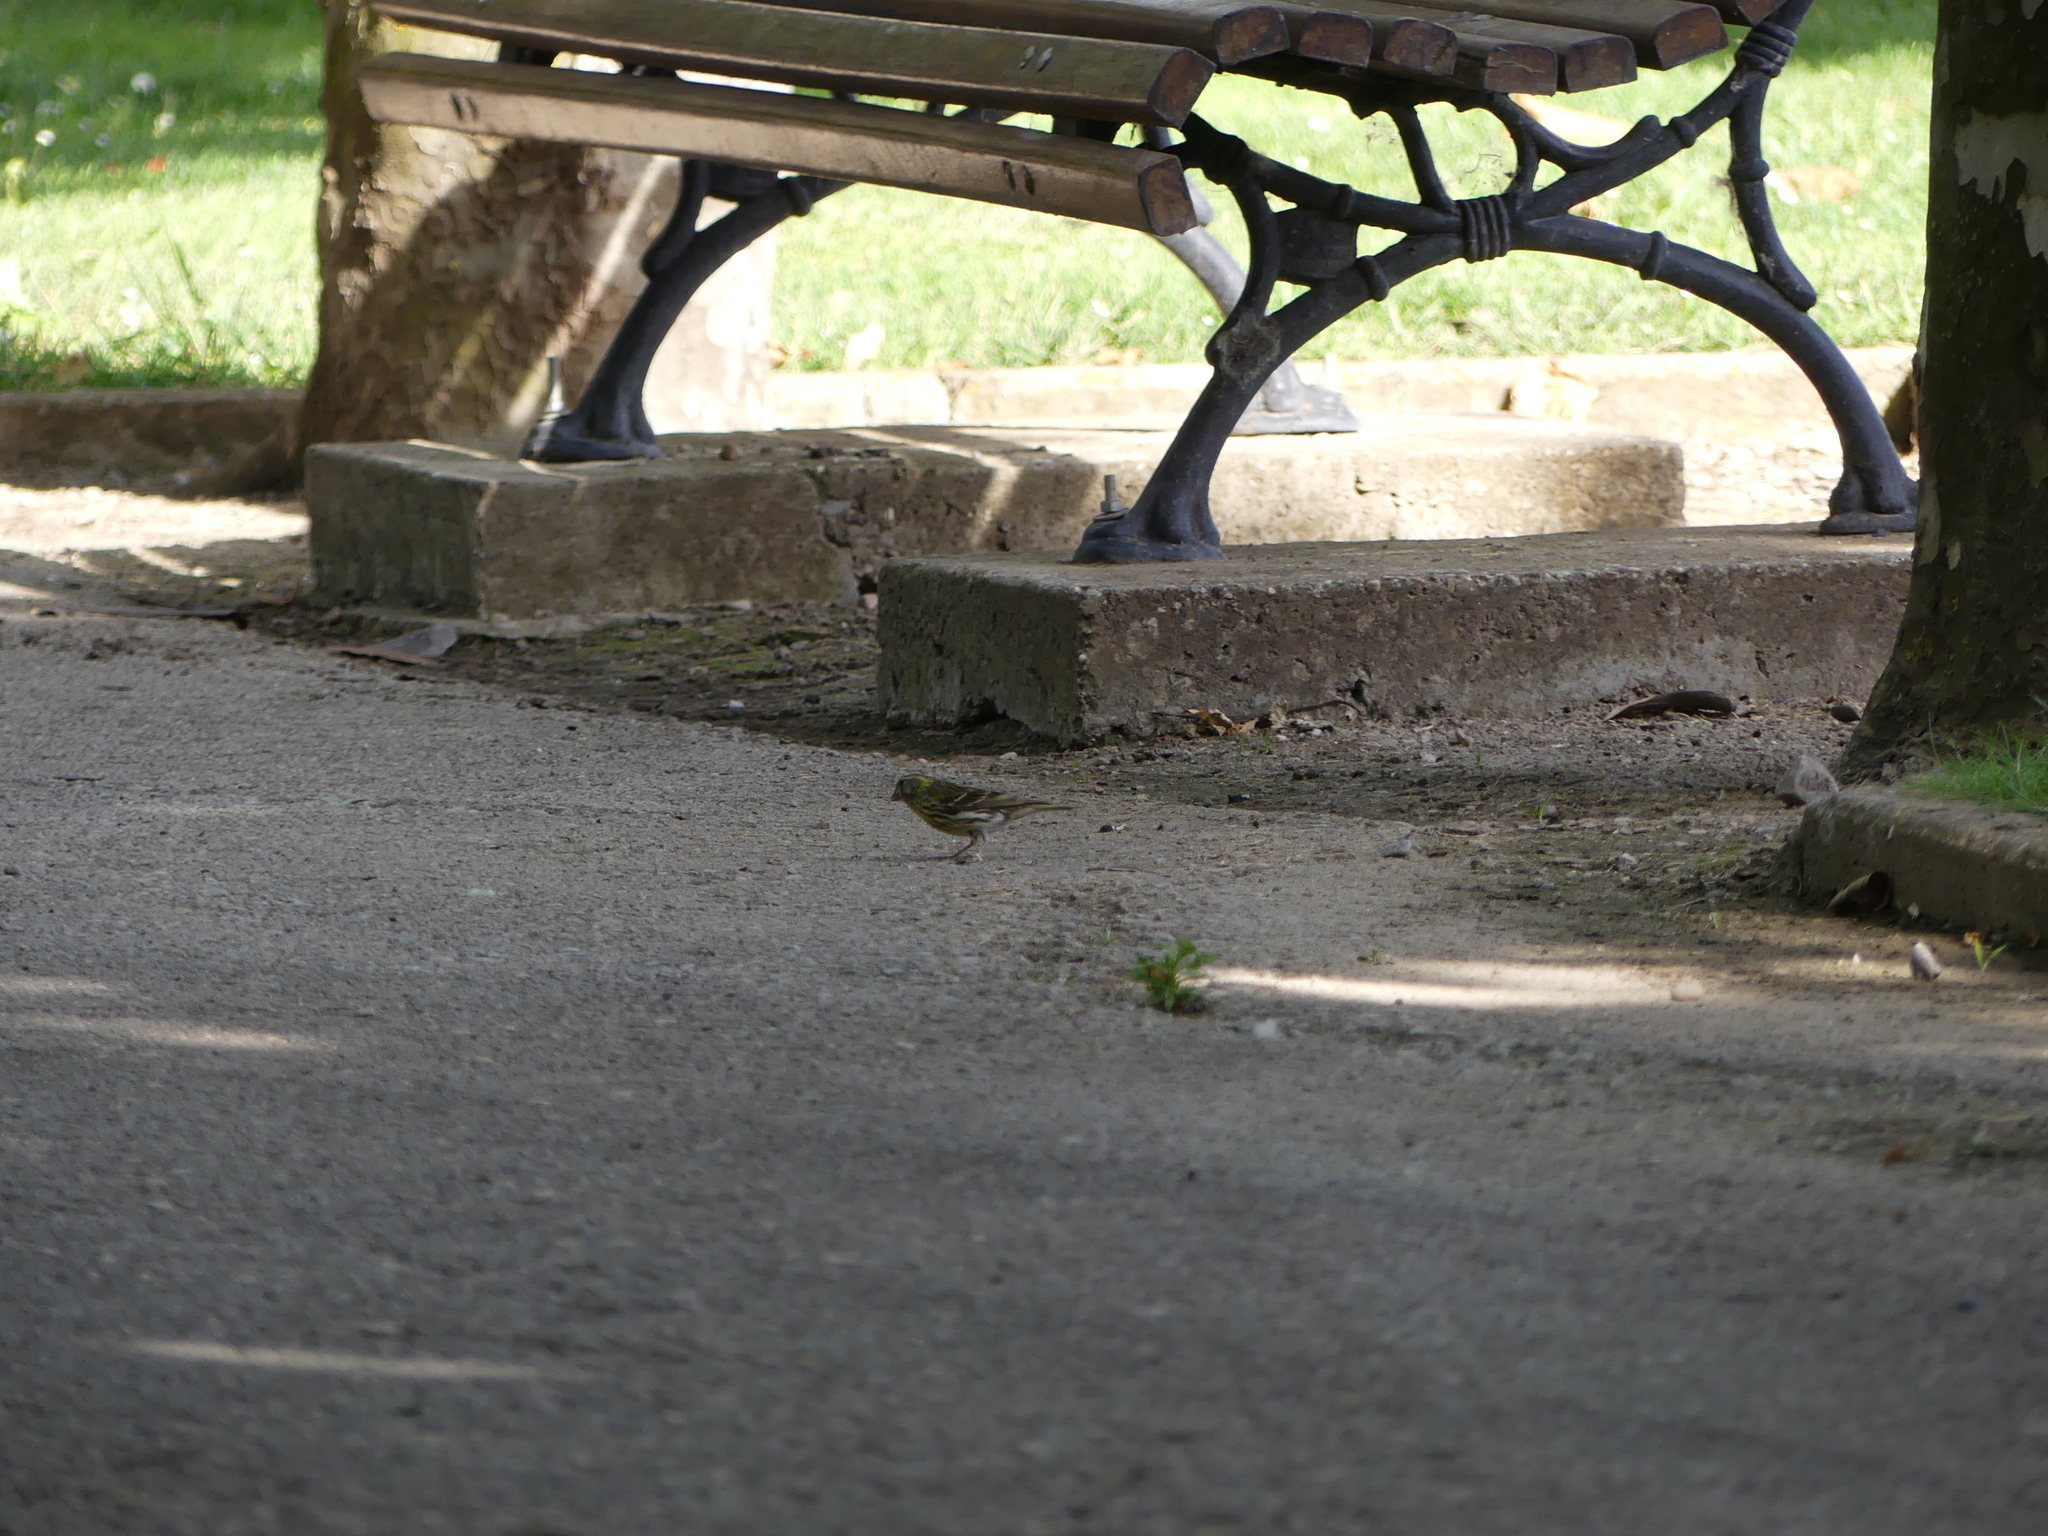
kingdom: Animalia
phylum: Chordata
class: Aves
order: Passeriformes
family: Fringillidae
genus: Serinus
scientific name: Serinus serinus
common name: European serin
